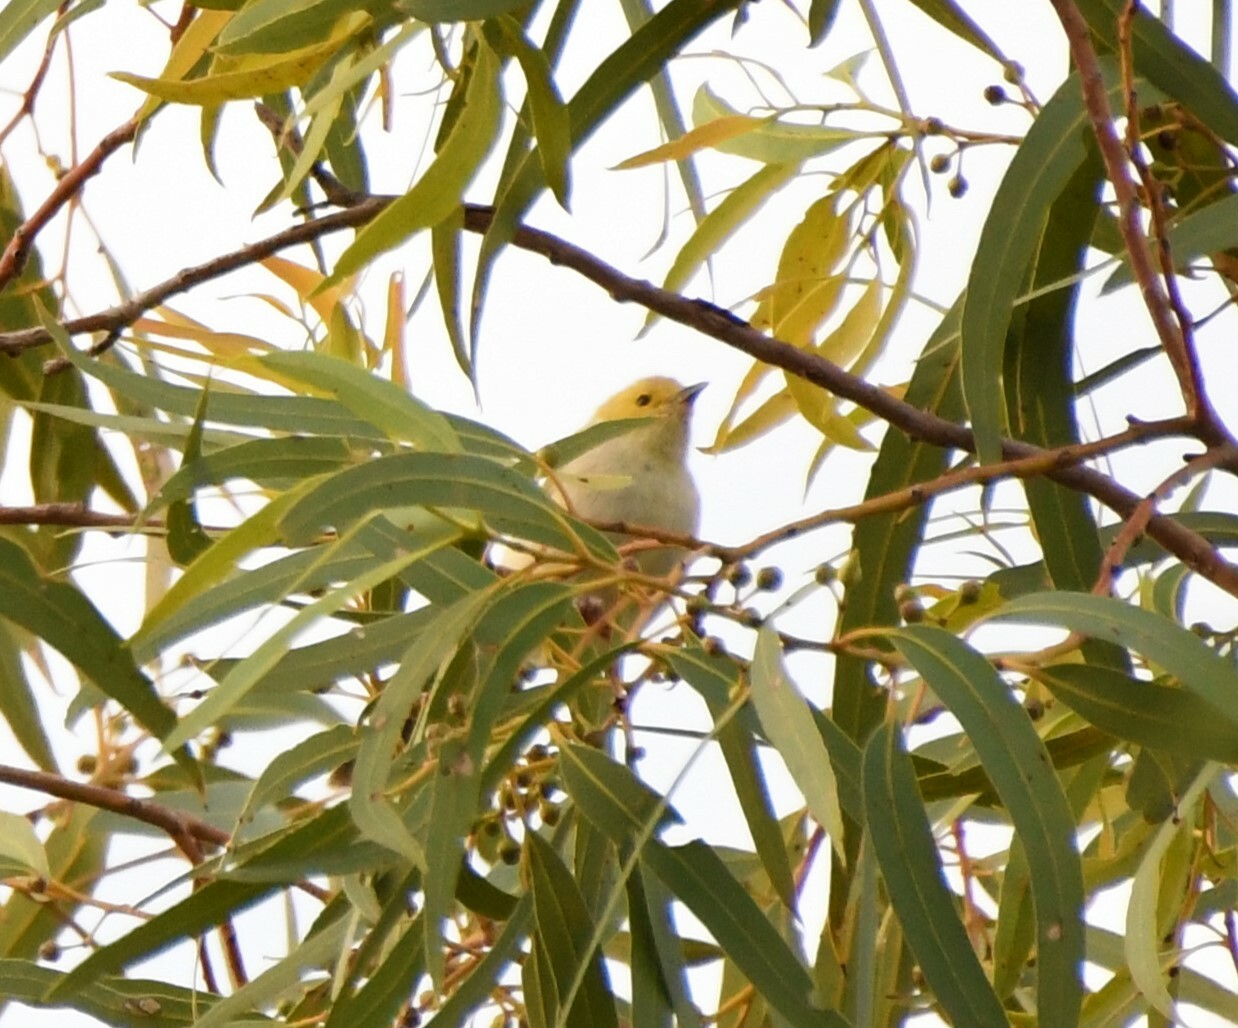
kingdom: Animalia
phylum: Chordata
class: Aves
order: Passeriformes
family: Meliphagidae
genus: Ptilotula
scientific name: Ptilotula penicillata
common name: White-plumed honeyeater
